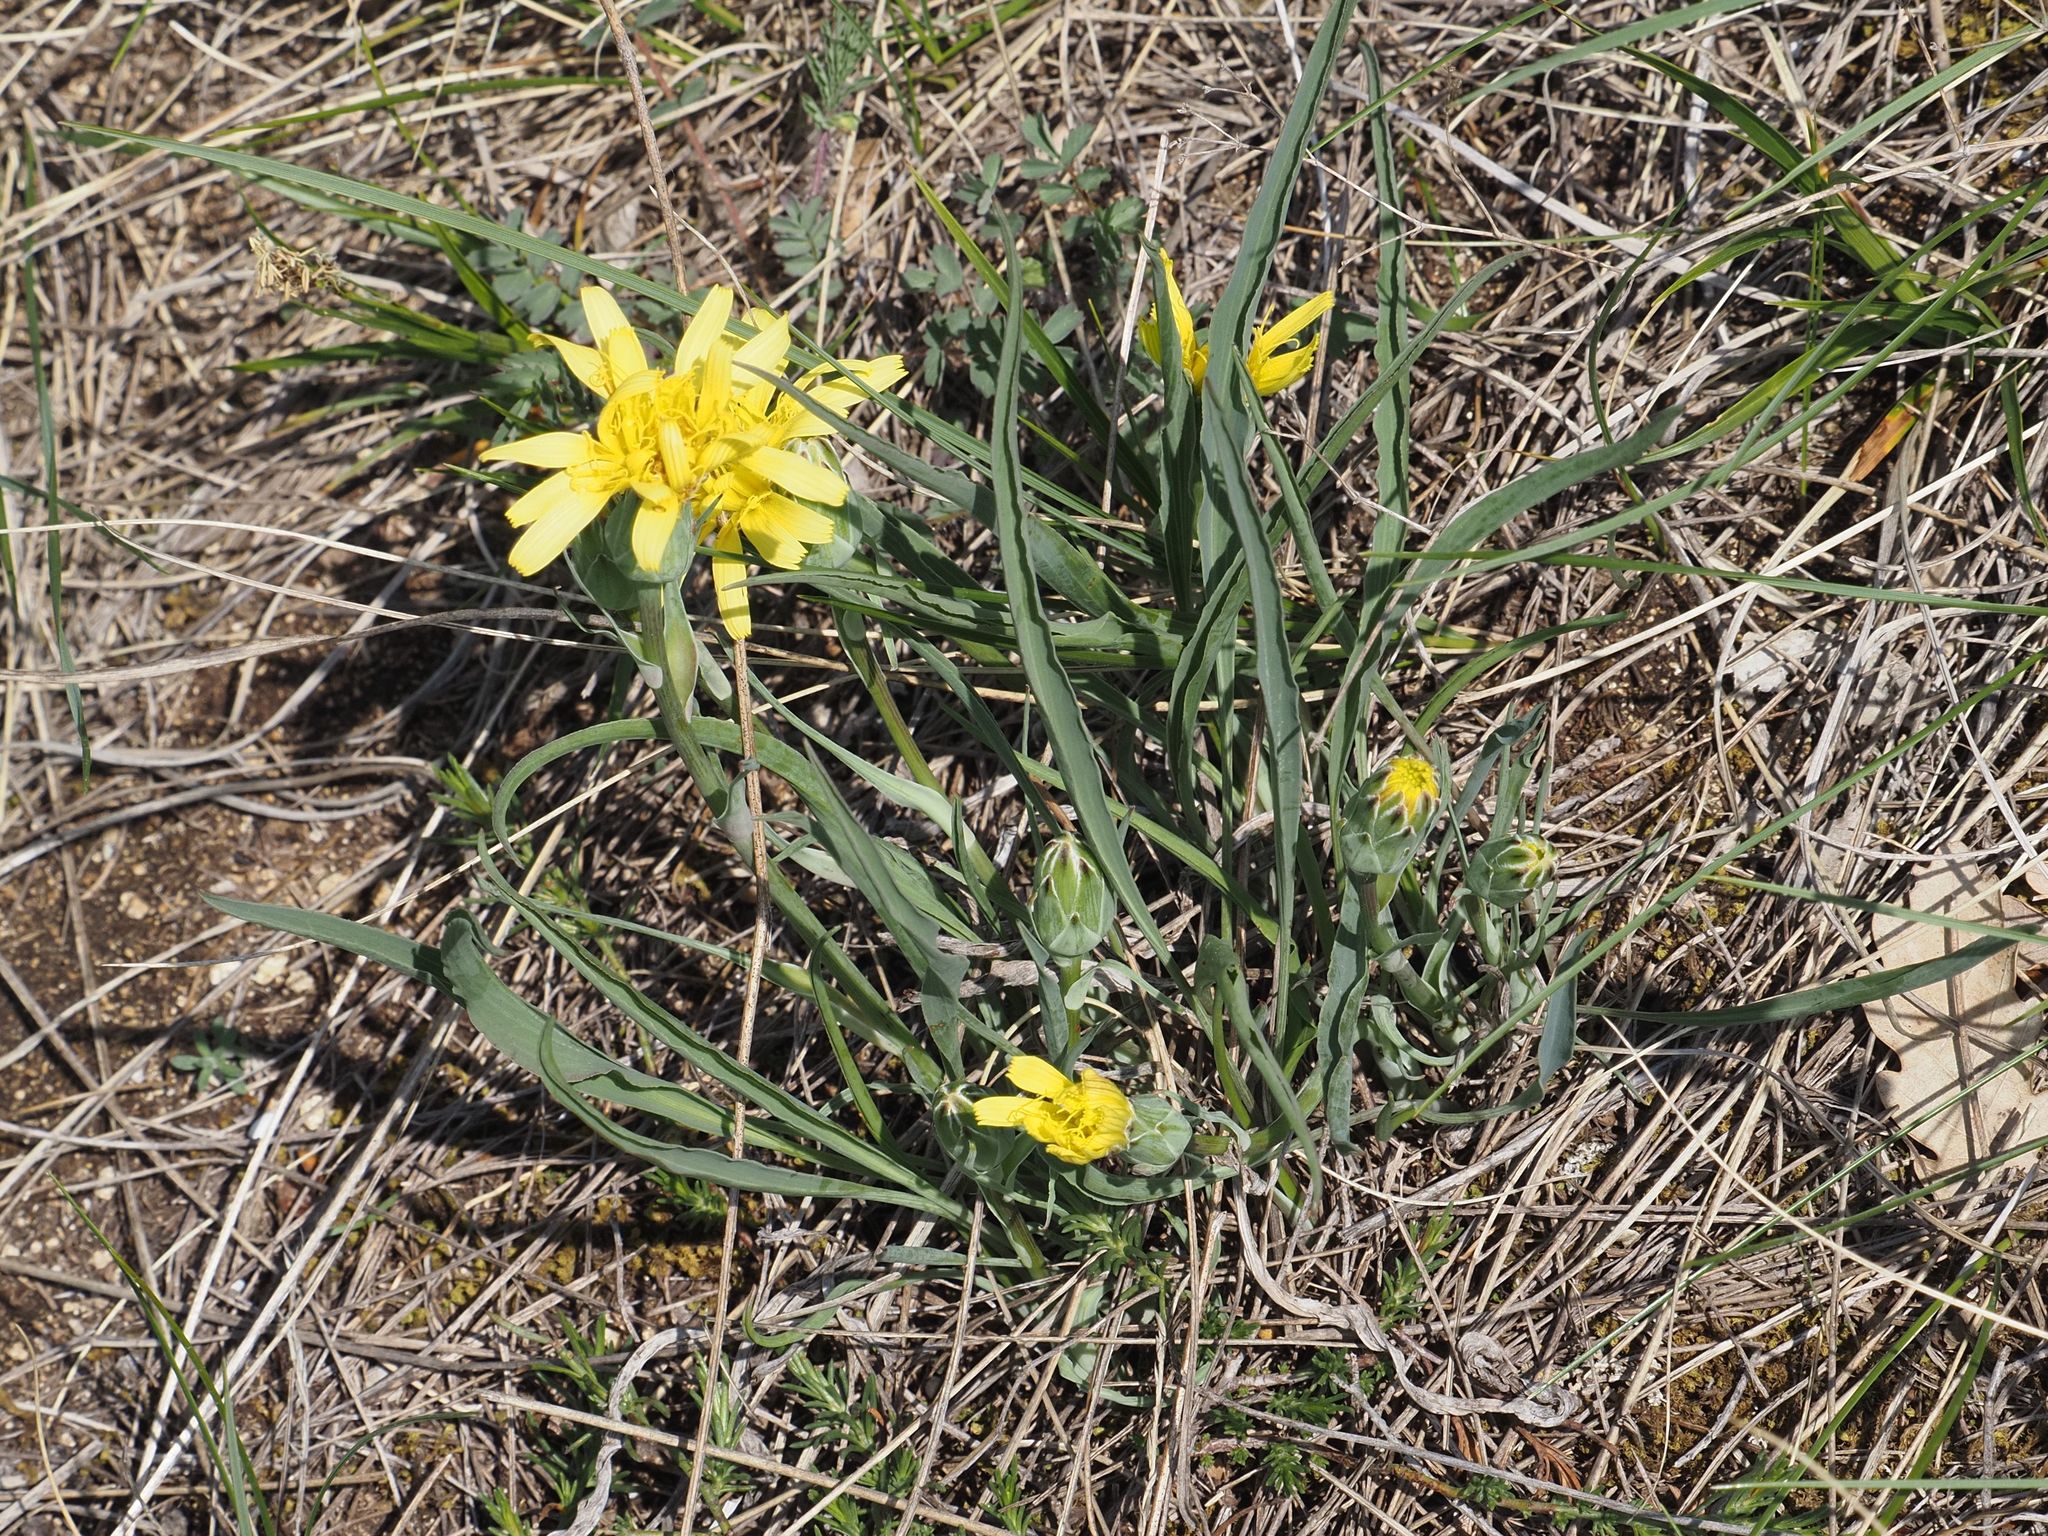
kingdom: Plantae
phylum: Tracheophyta
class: Magnoliopsida
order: Asterales
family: Asteraceae
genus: Takhtajaniantha
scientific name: Takhtajaniantha austriaca
